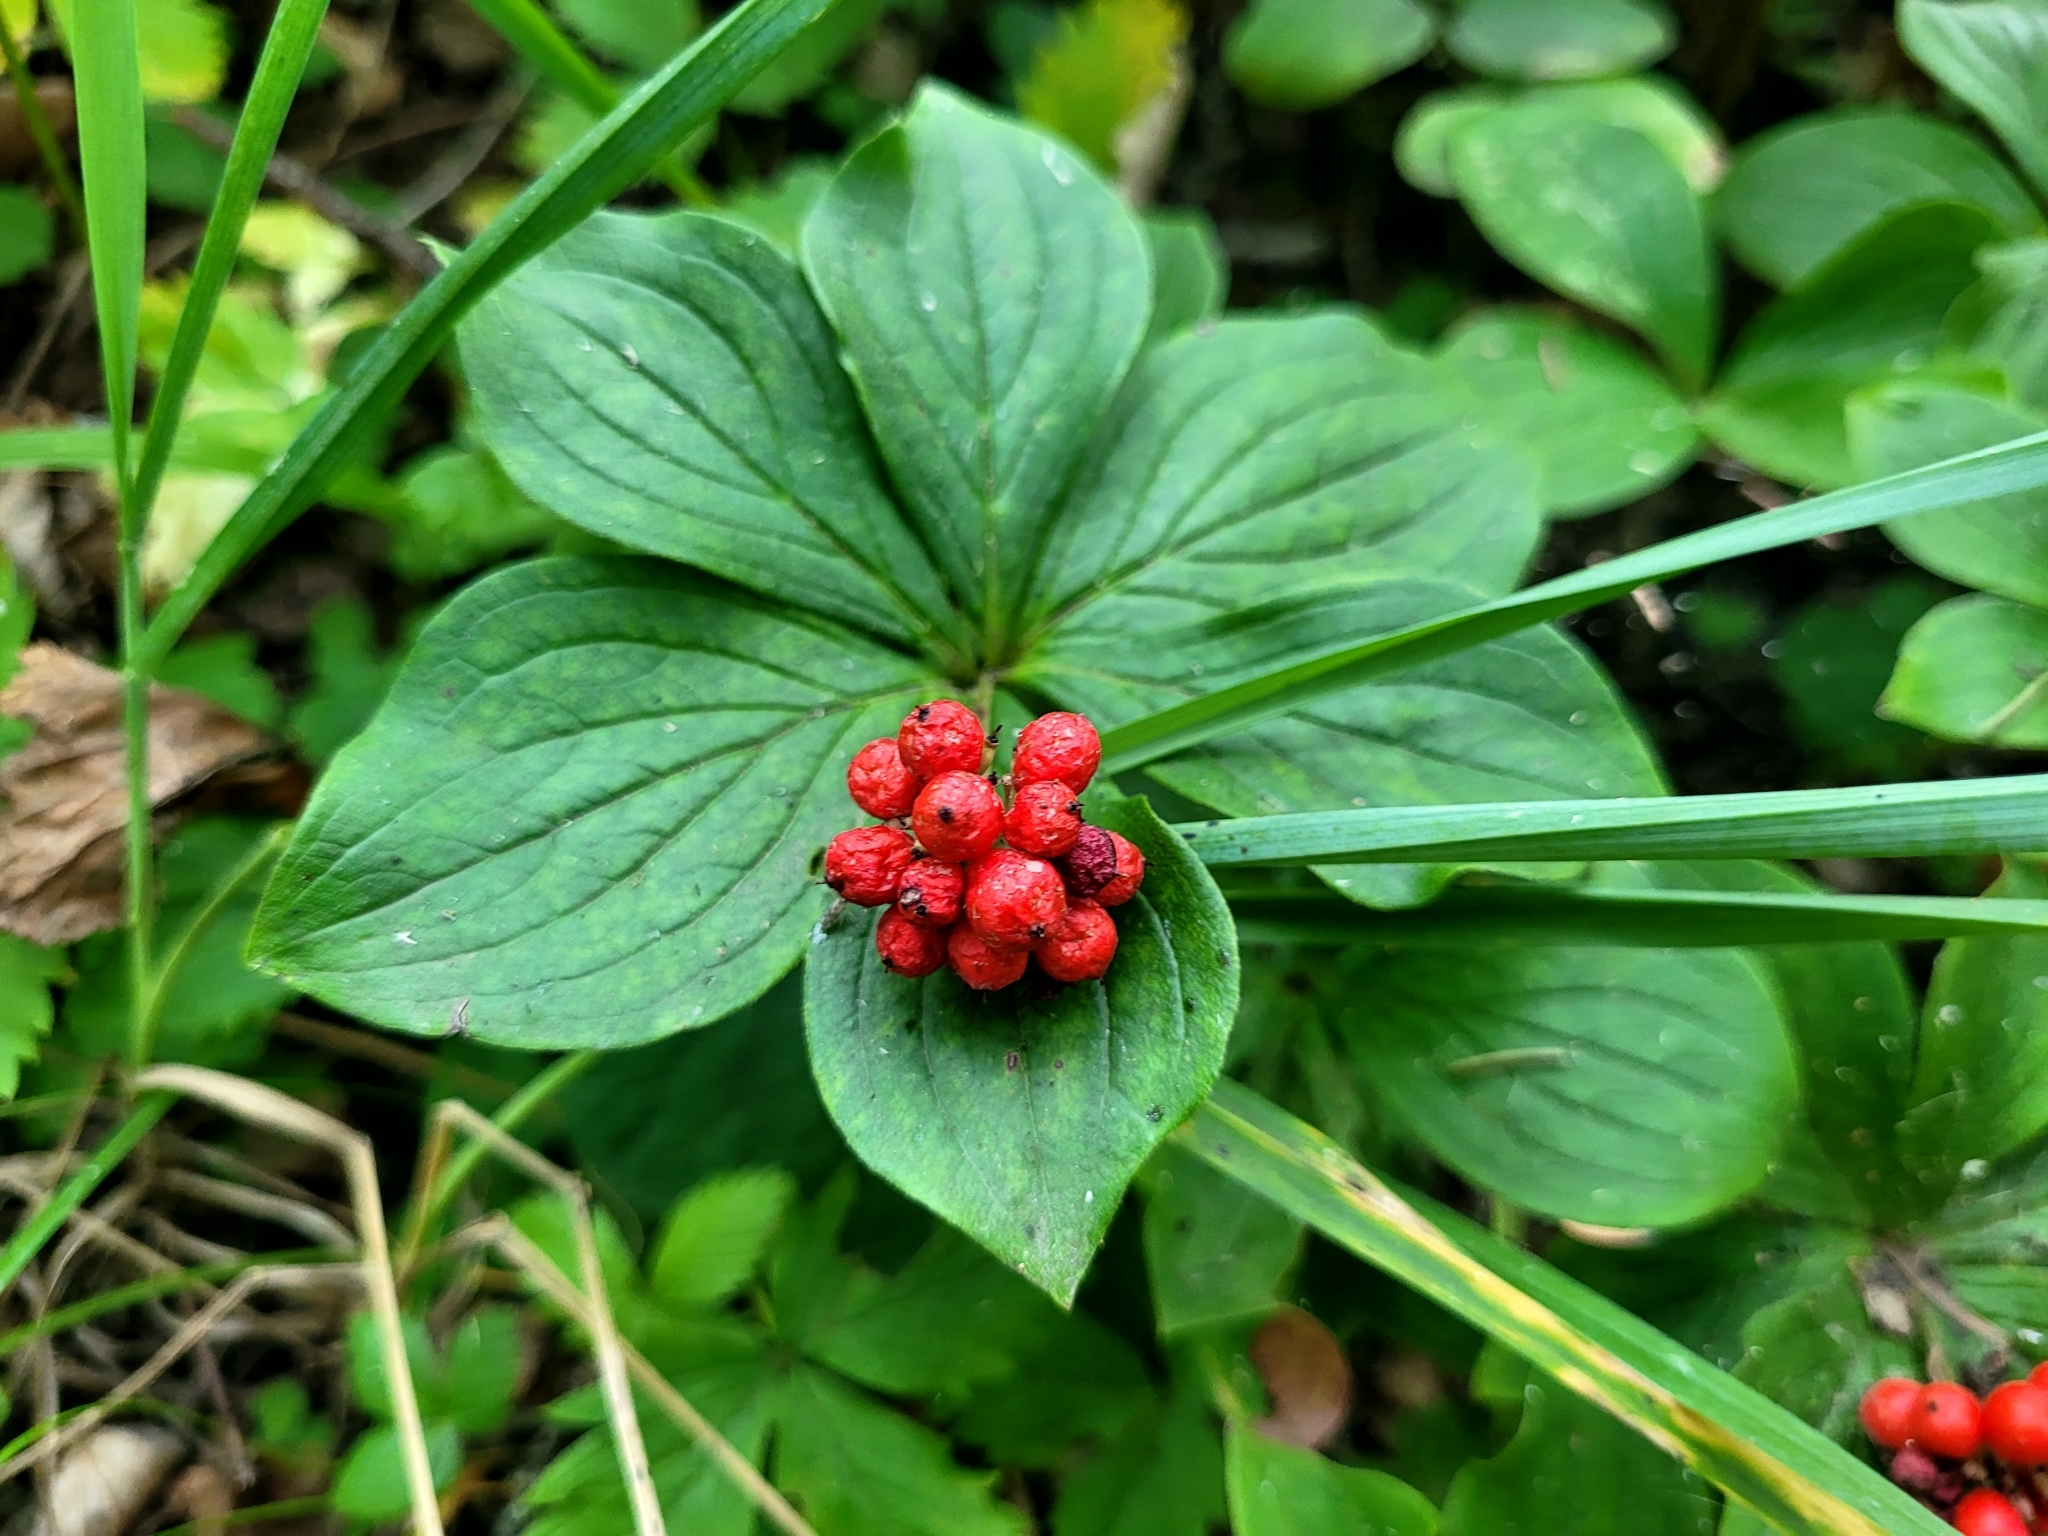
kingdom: Plantae
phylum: Tracheophyta
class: Magnoliopsida
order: Cornales
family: Cornaceae
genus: Cornus
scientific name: Cornus canadensis
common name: Creeping dogwood
